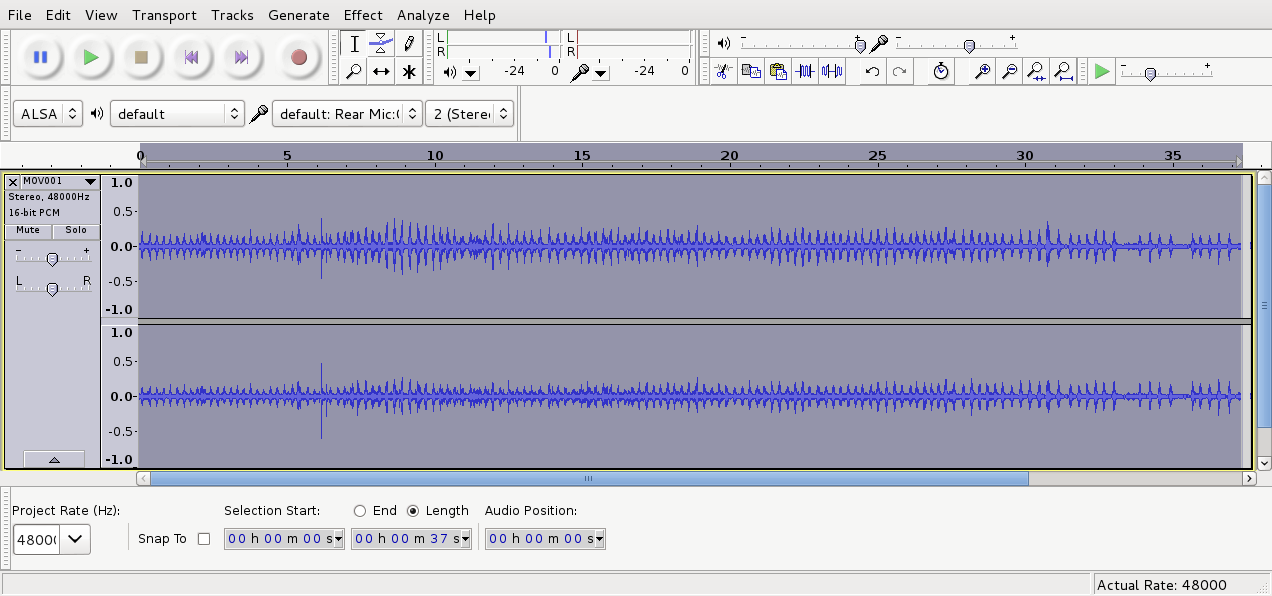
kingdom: Animalia
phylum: Chordata
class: Aves
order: Passeriformes
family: Meliphagidae
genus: Anthornis
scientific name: Anthornis melanura
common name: New zealand bellbird
